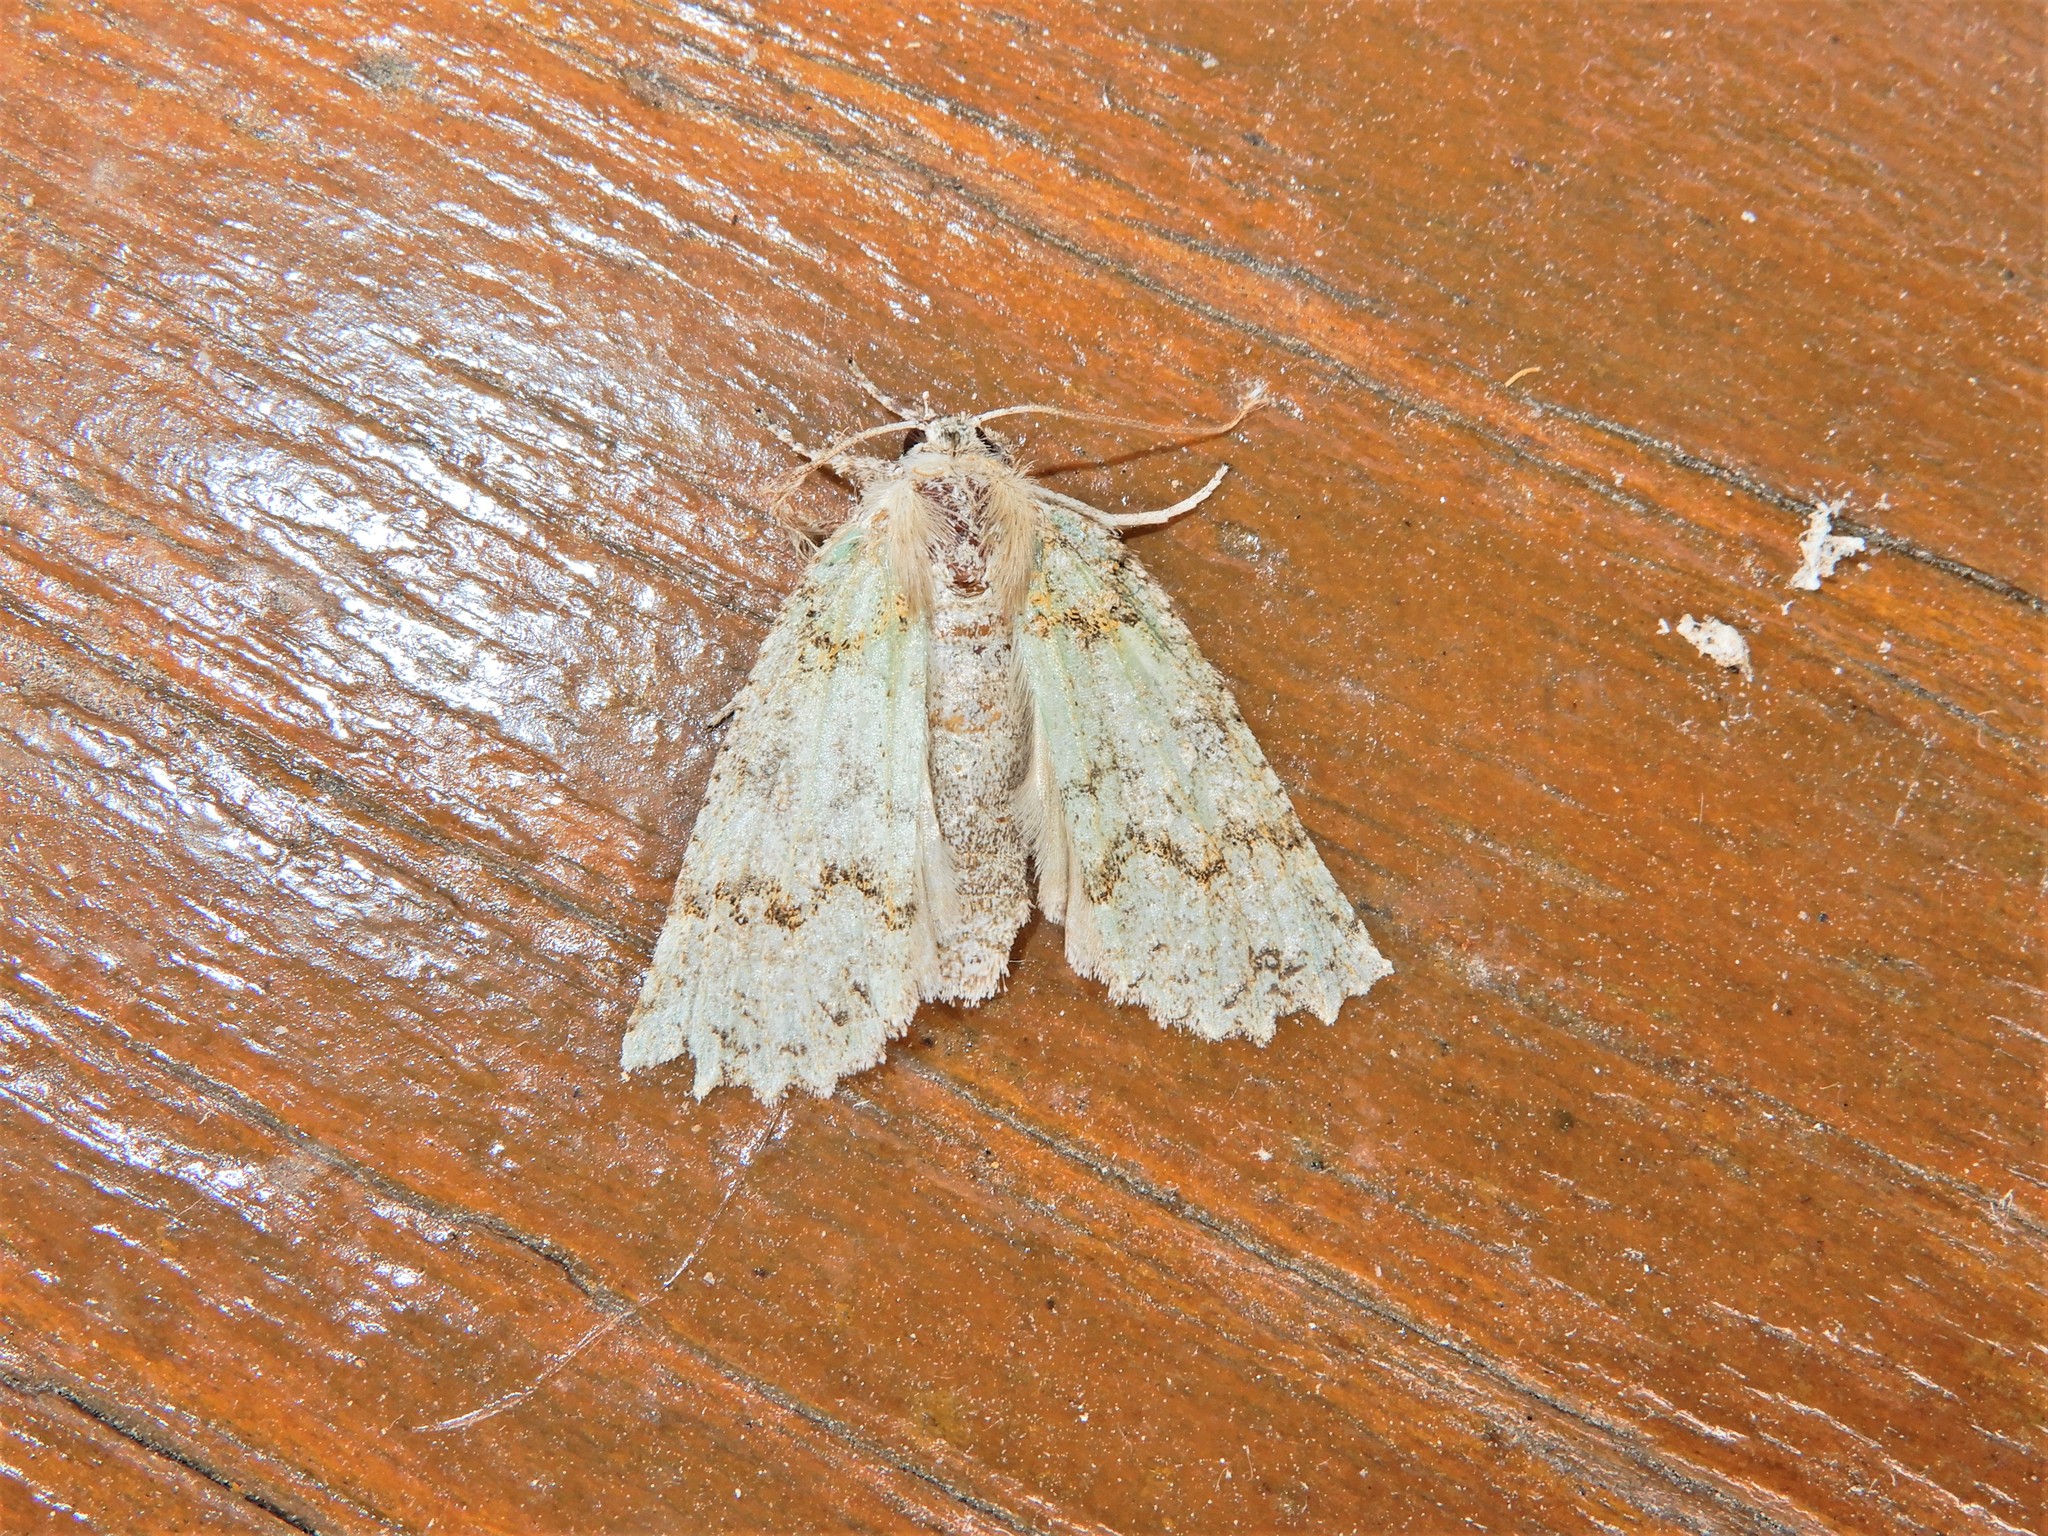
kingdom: Animalia
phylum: Arthropoda
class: Insecta
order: Lepidoptera
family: Geometridae
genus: Declana
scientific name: Declana floccosa
